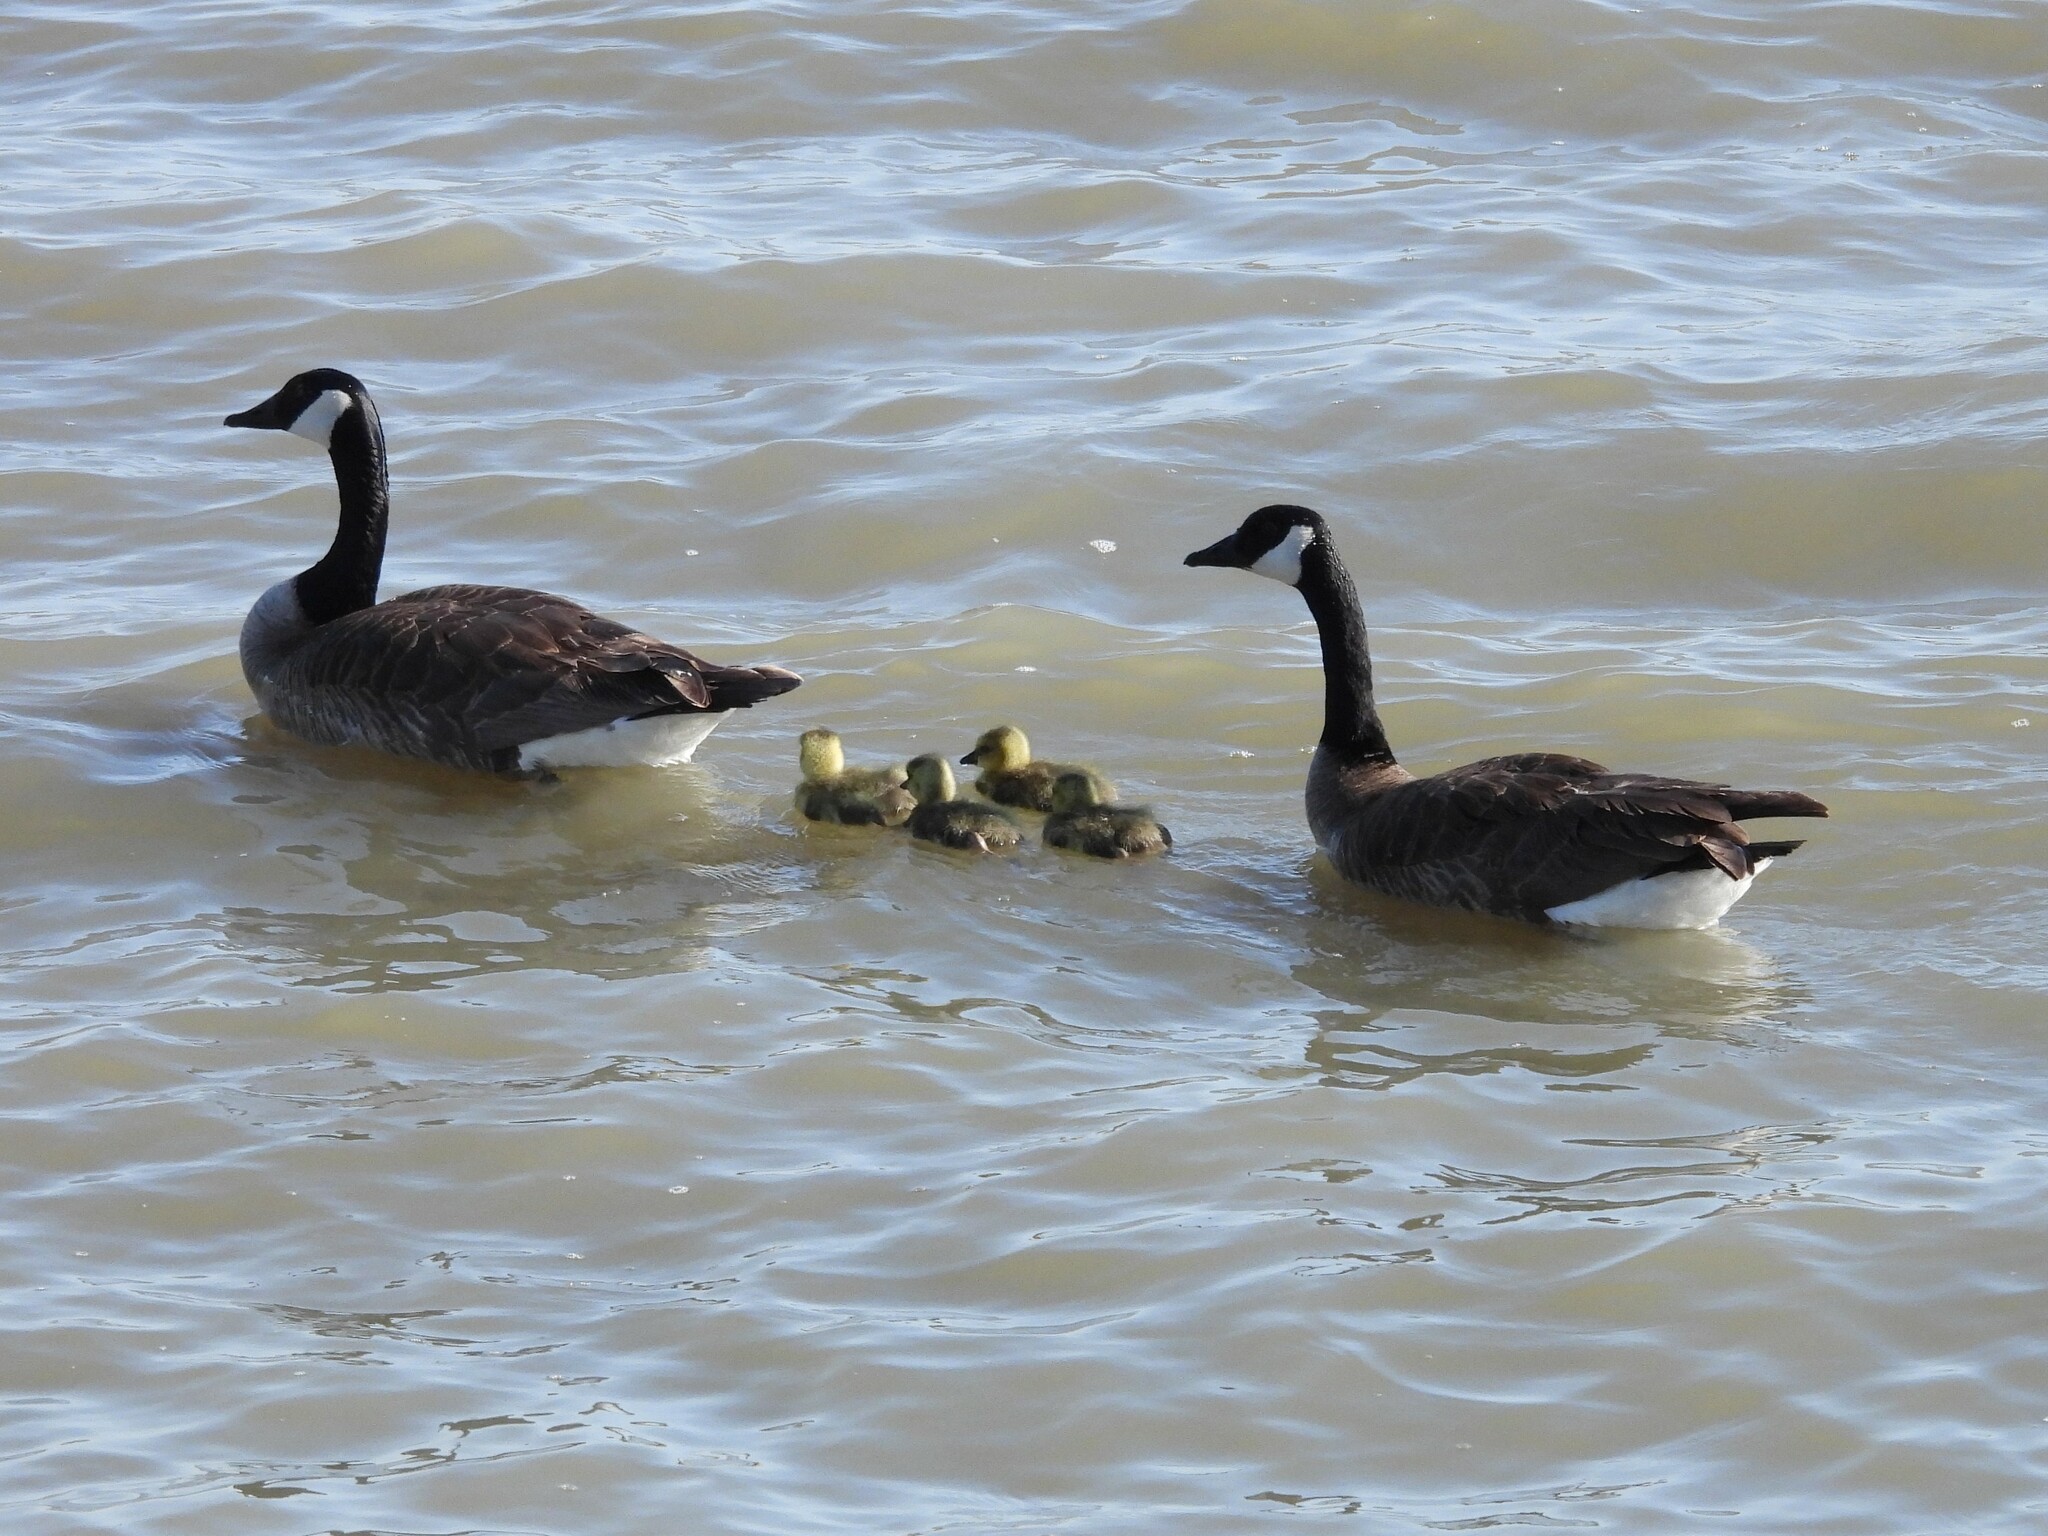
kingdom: Animalia
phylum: Chordata
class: Aves
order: Anseriformes
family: Anatidae
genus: Branta
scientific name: Branta canadensis
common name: Canada goose
